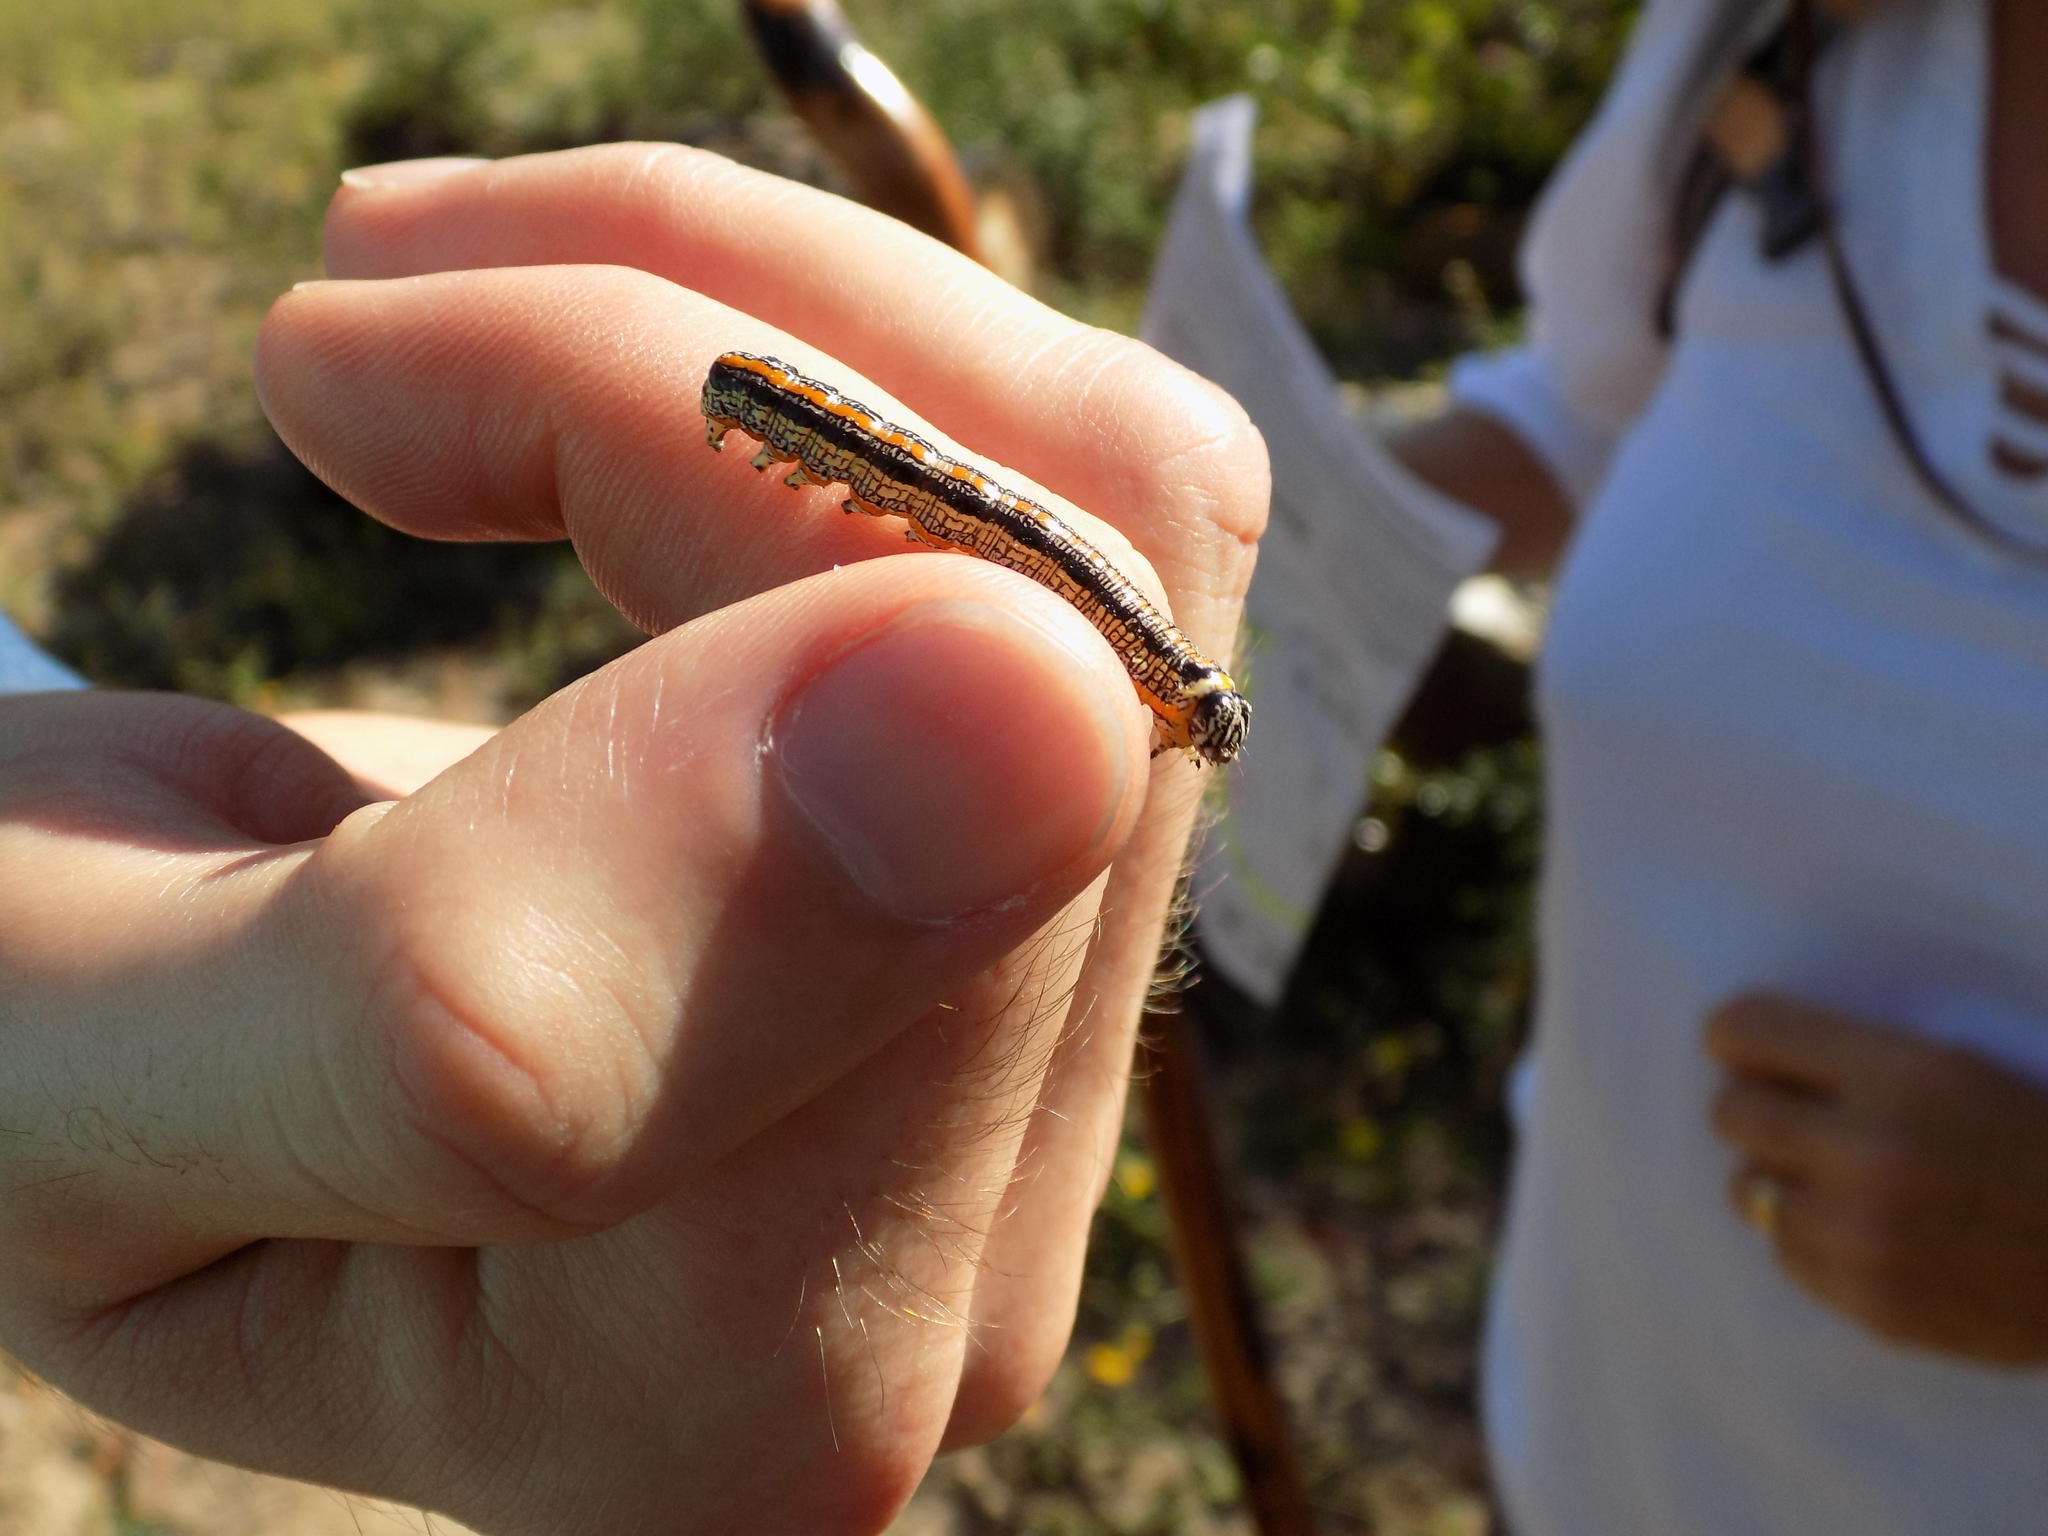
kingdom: Animalia
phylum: Arthropoda
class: Insecta
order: Lepidoptera
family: Noctuidae
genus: Cucullia
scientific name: Cucullia alfarata
